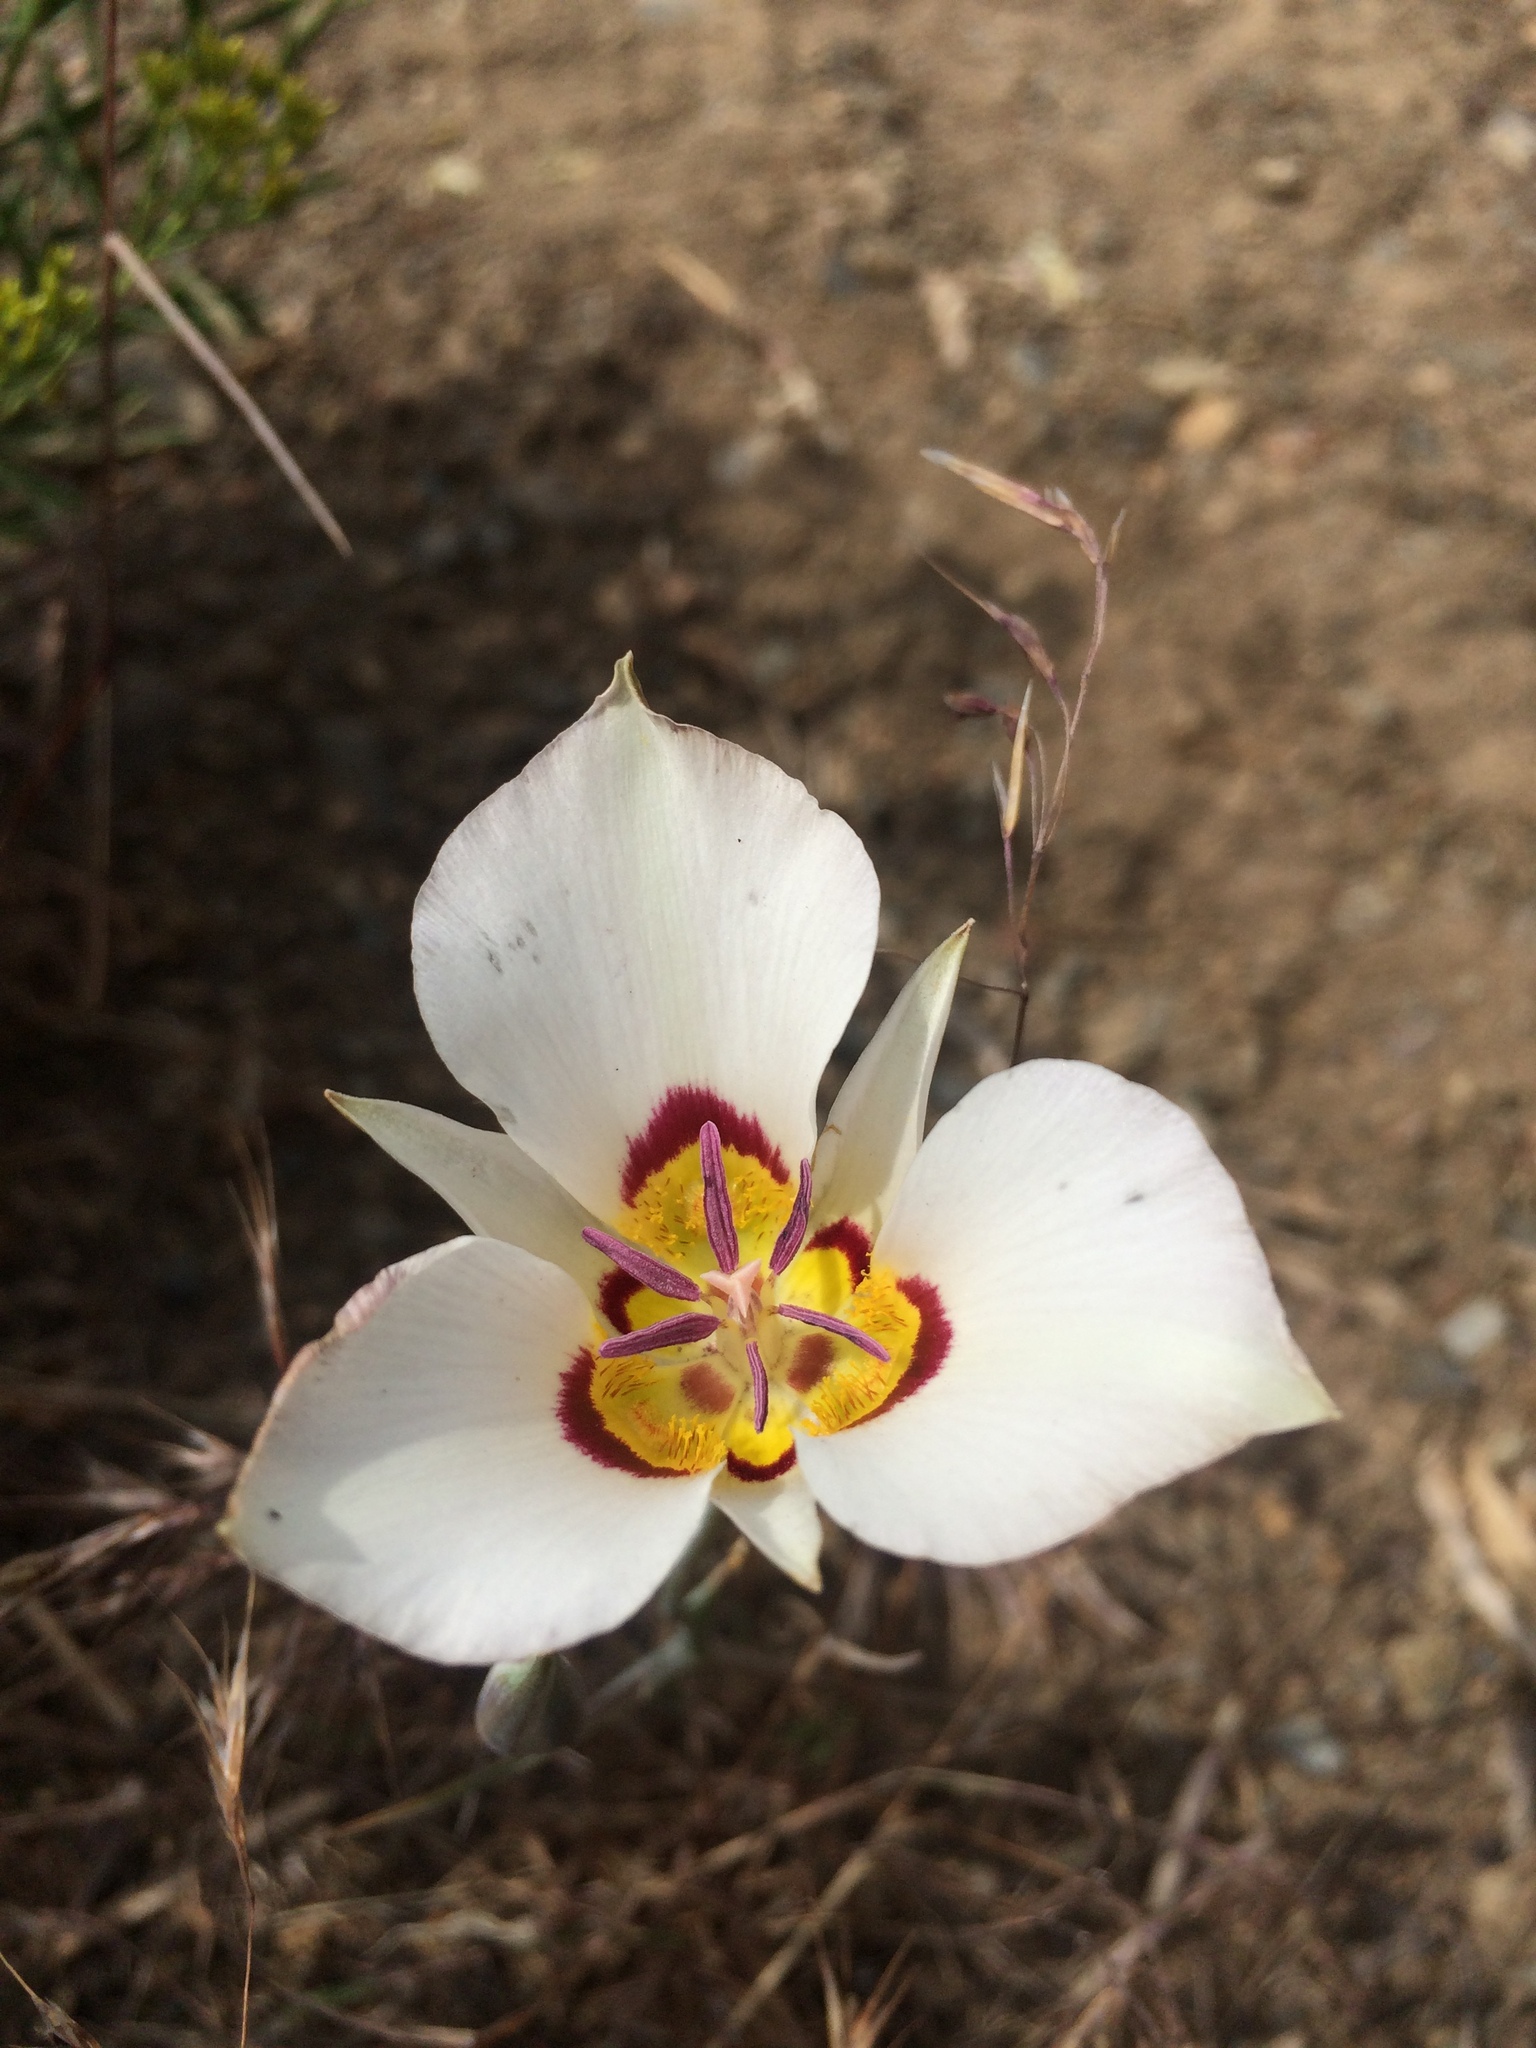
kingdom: Plantae
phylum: Tracheophyta
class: Liliopsida
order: Liliales
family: Liliaceae
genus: Calochortus
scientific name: Calochortus bruneaunis
